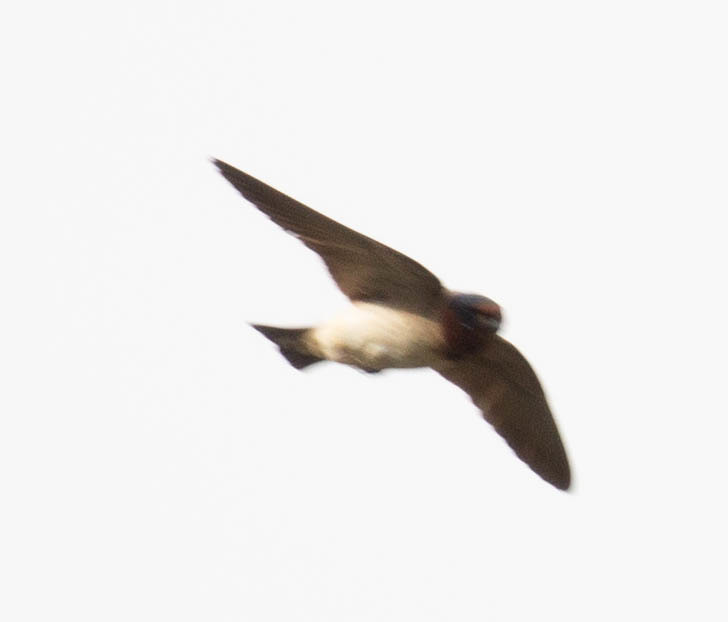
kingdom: Animalia
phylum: Chordata
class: Aves
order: Passeriformes
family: Hirundinidae
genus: Petrochelidon
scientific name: Petrochelidon pyrrhonota
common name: American cliff swallow
